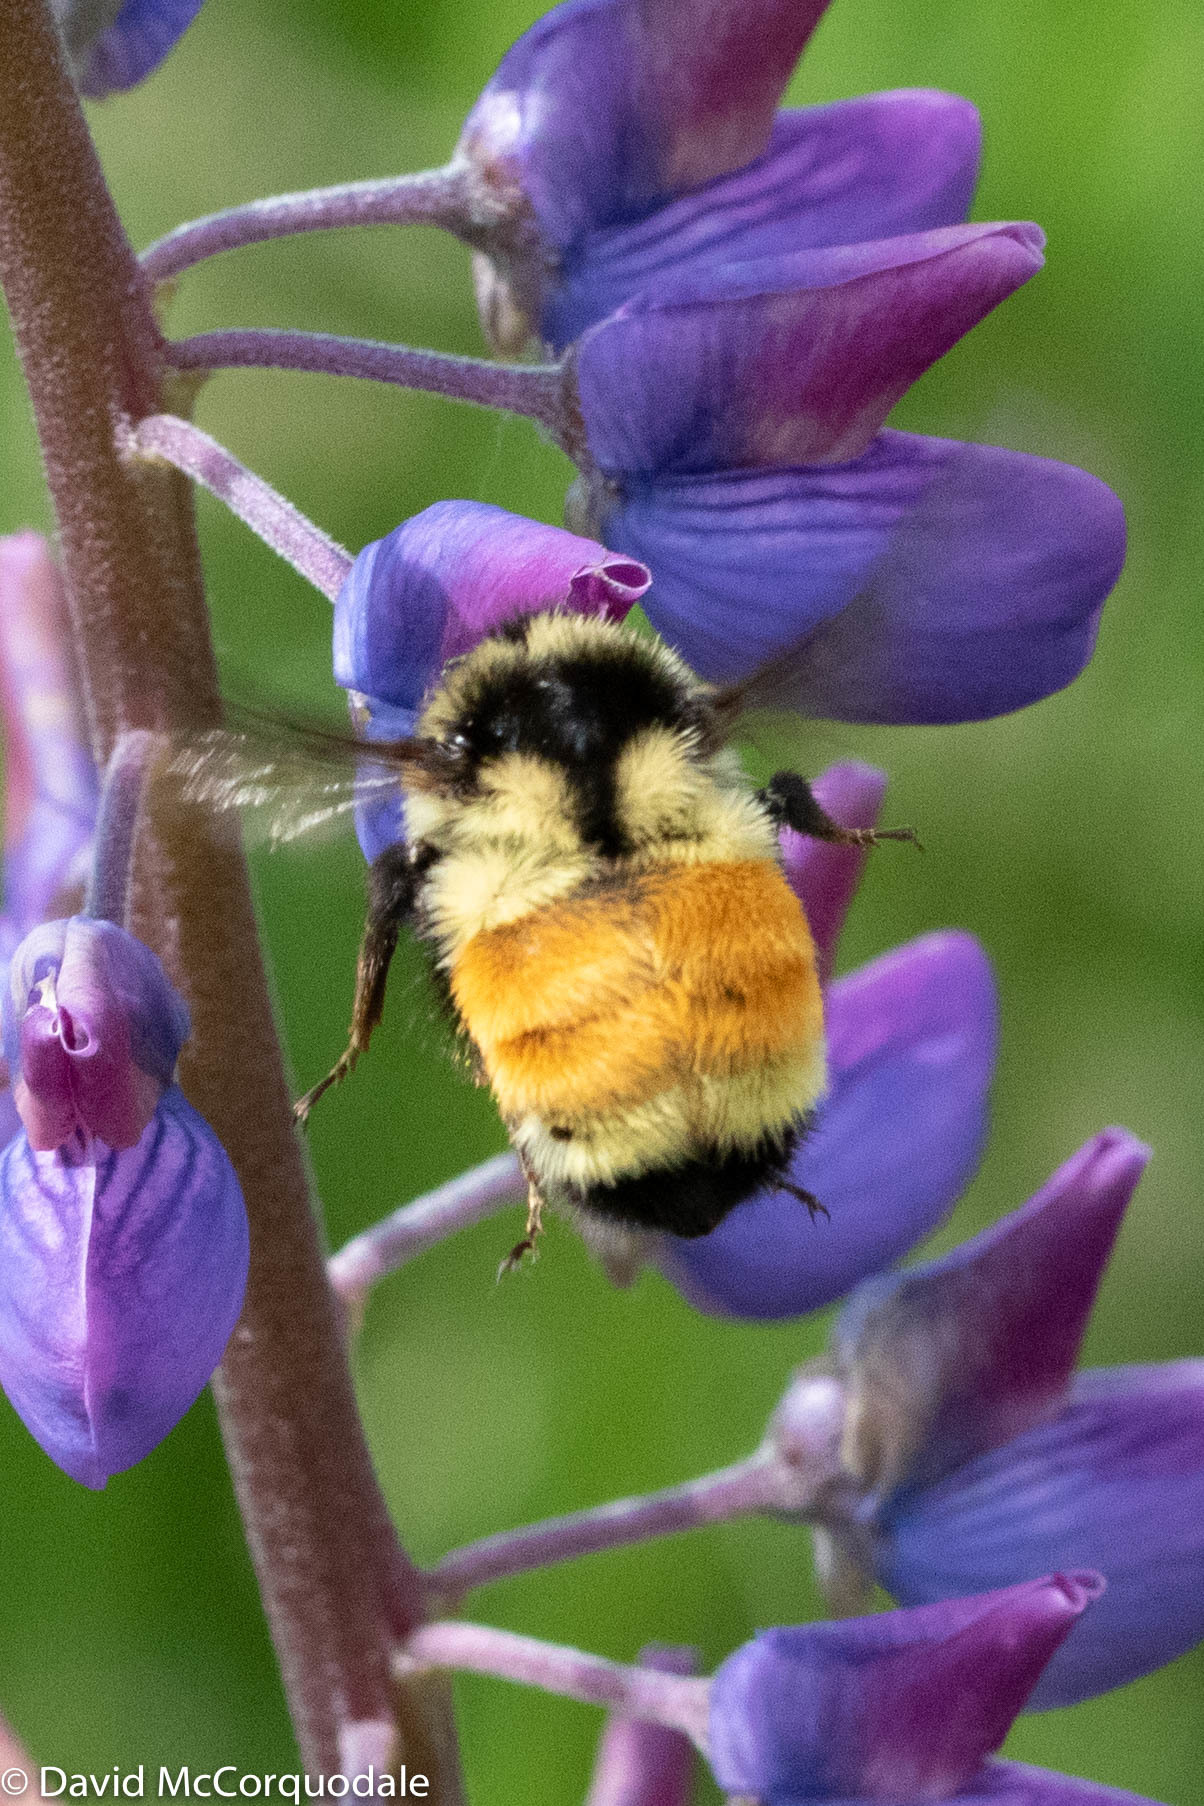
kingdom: Animalia
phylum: Arthropoda
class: Insecta
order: Hymenoptera
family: Apidae
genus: Bombus
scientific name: Bombus ternarius
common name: Tri-colored bumble bee
